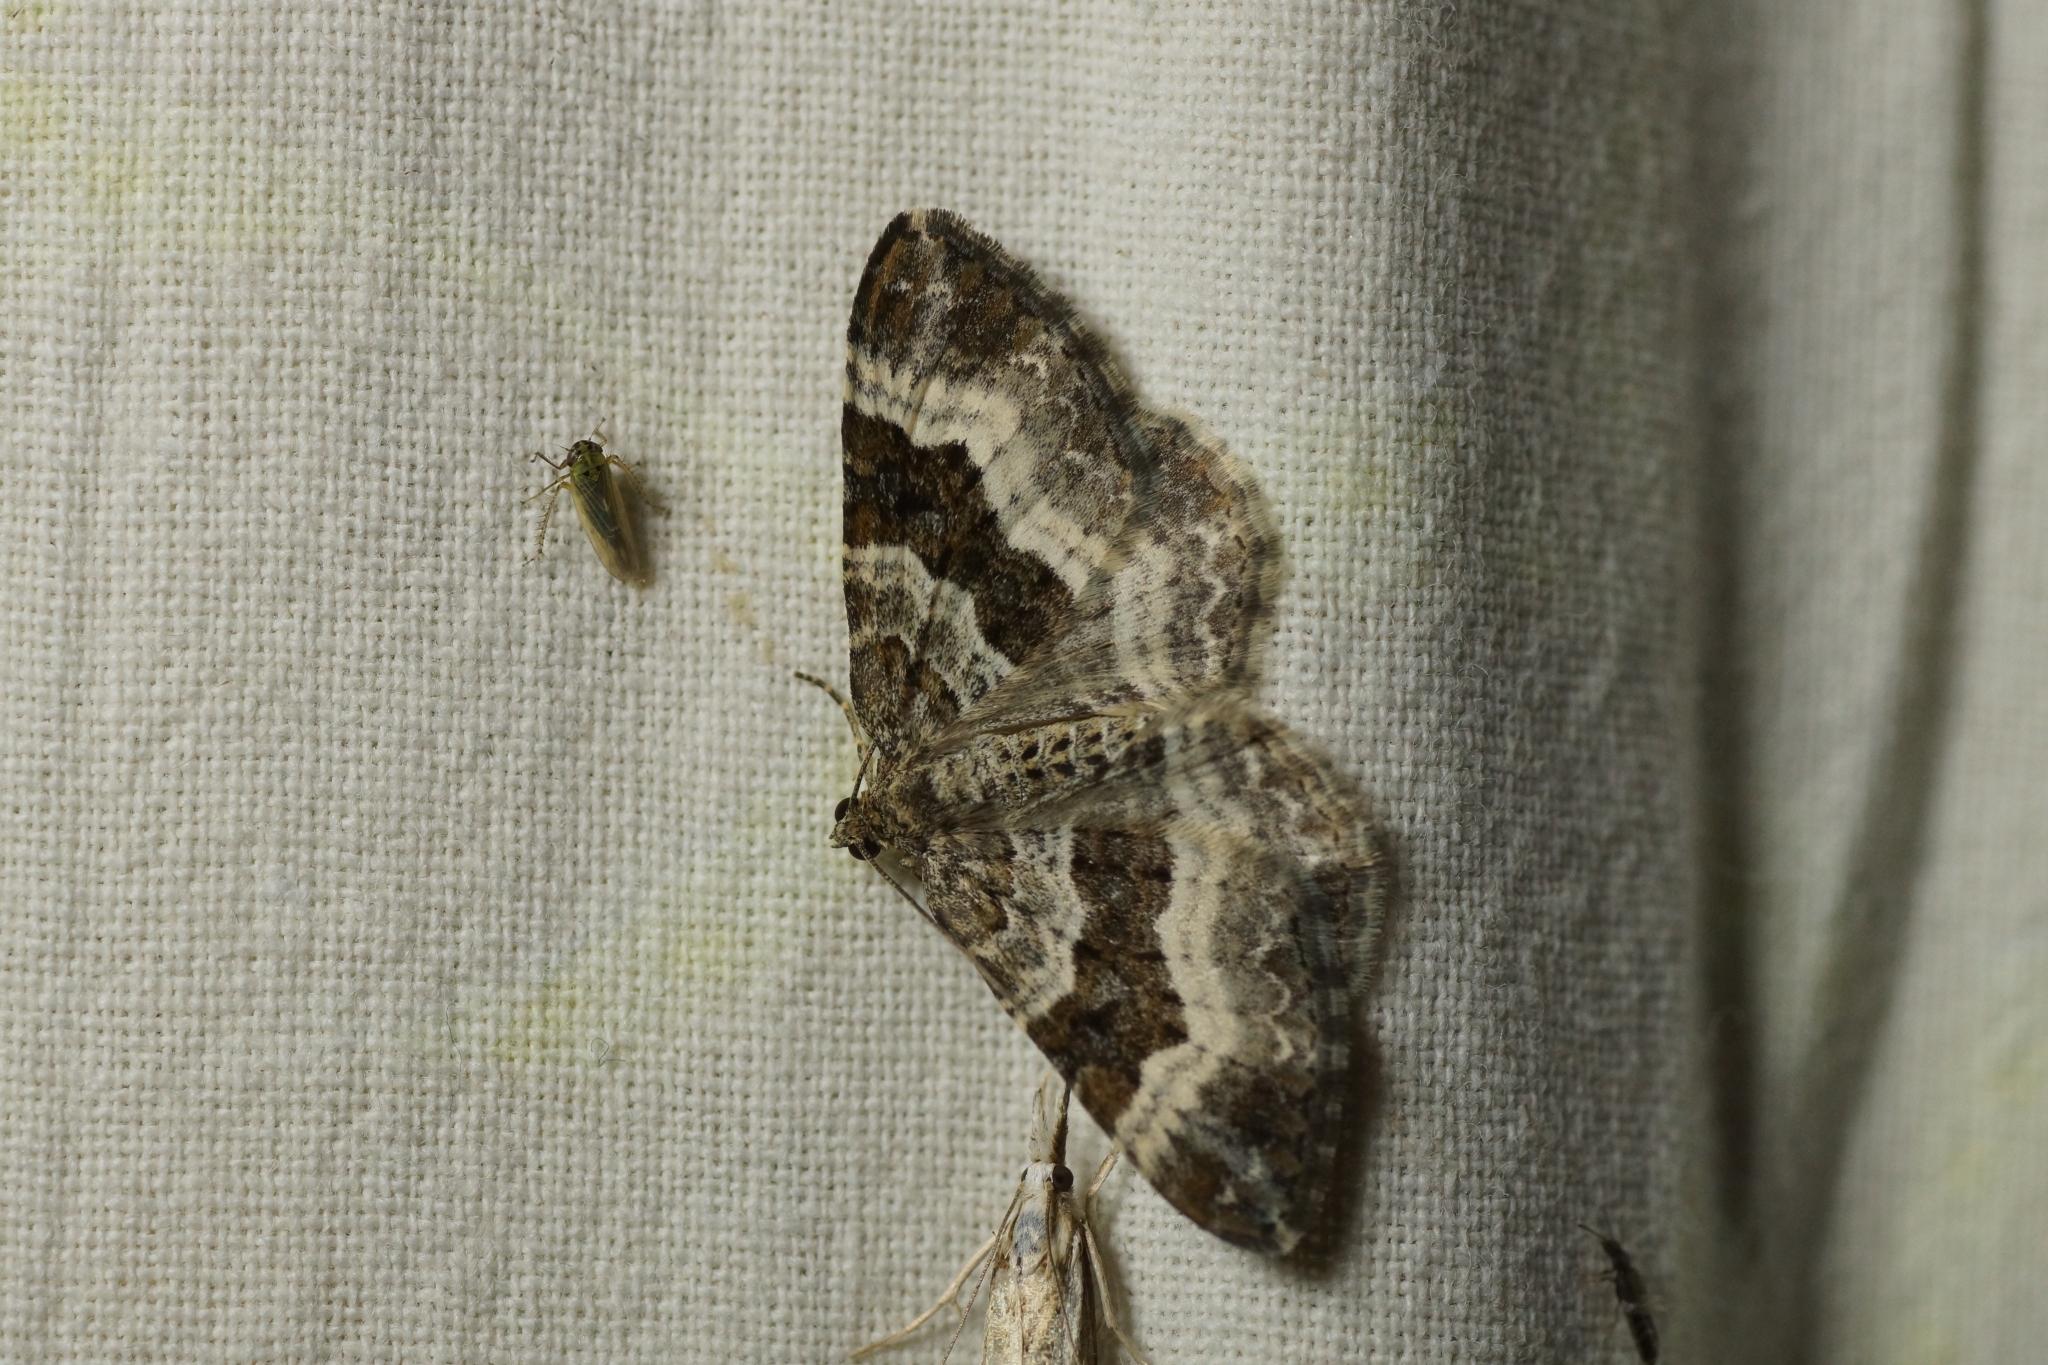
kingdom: Animalia
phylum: Arthropoda
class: Insecta
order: Lepidoptera
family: Geometridae
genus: Epirrhoe
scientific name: Epirrhoe alternata
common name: Common carpet
